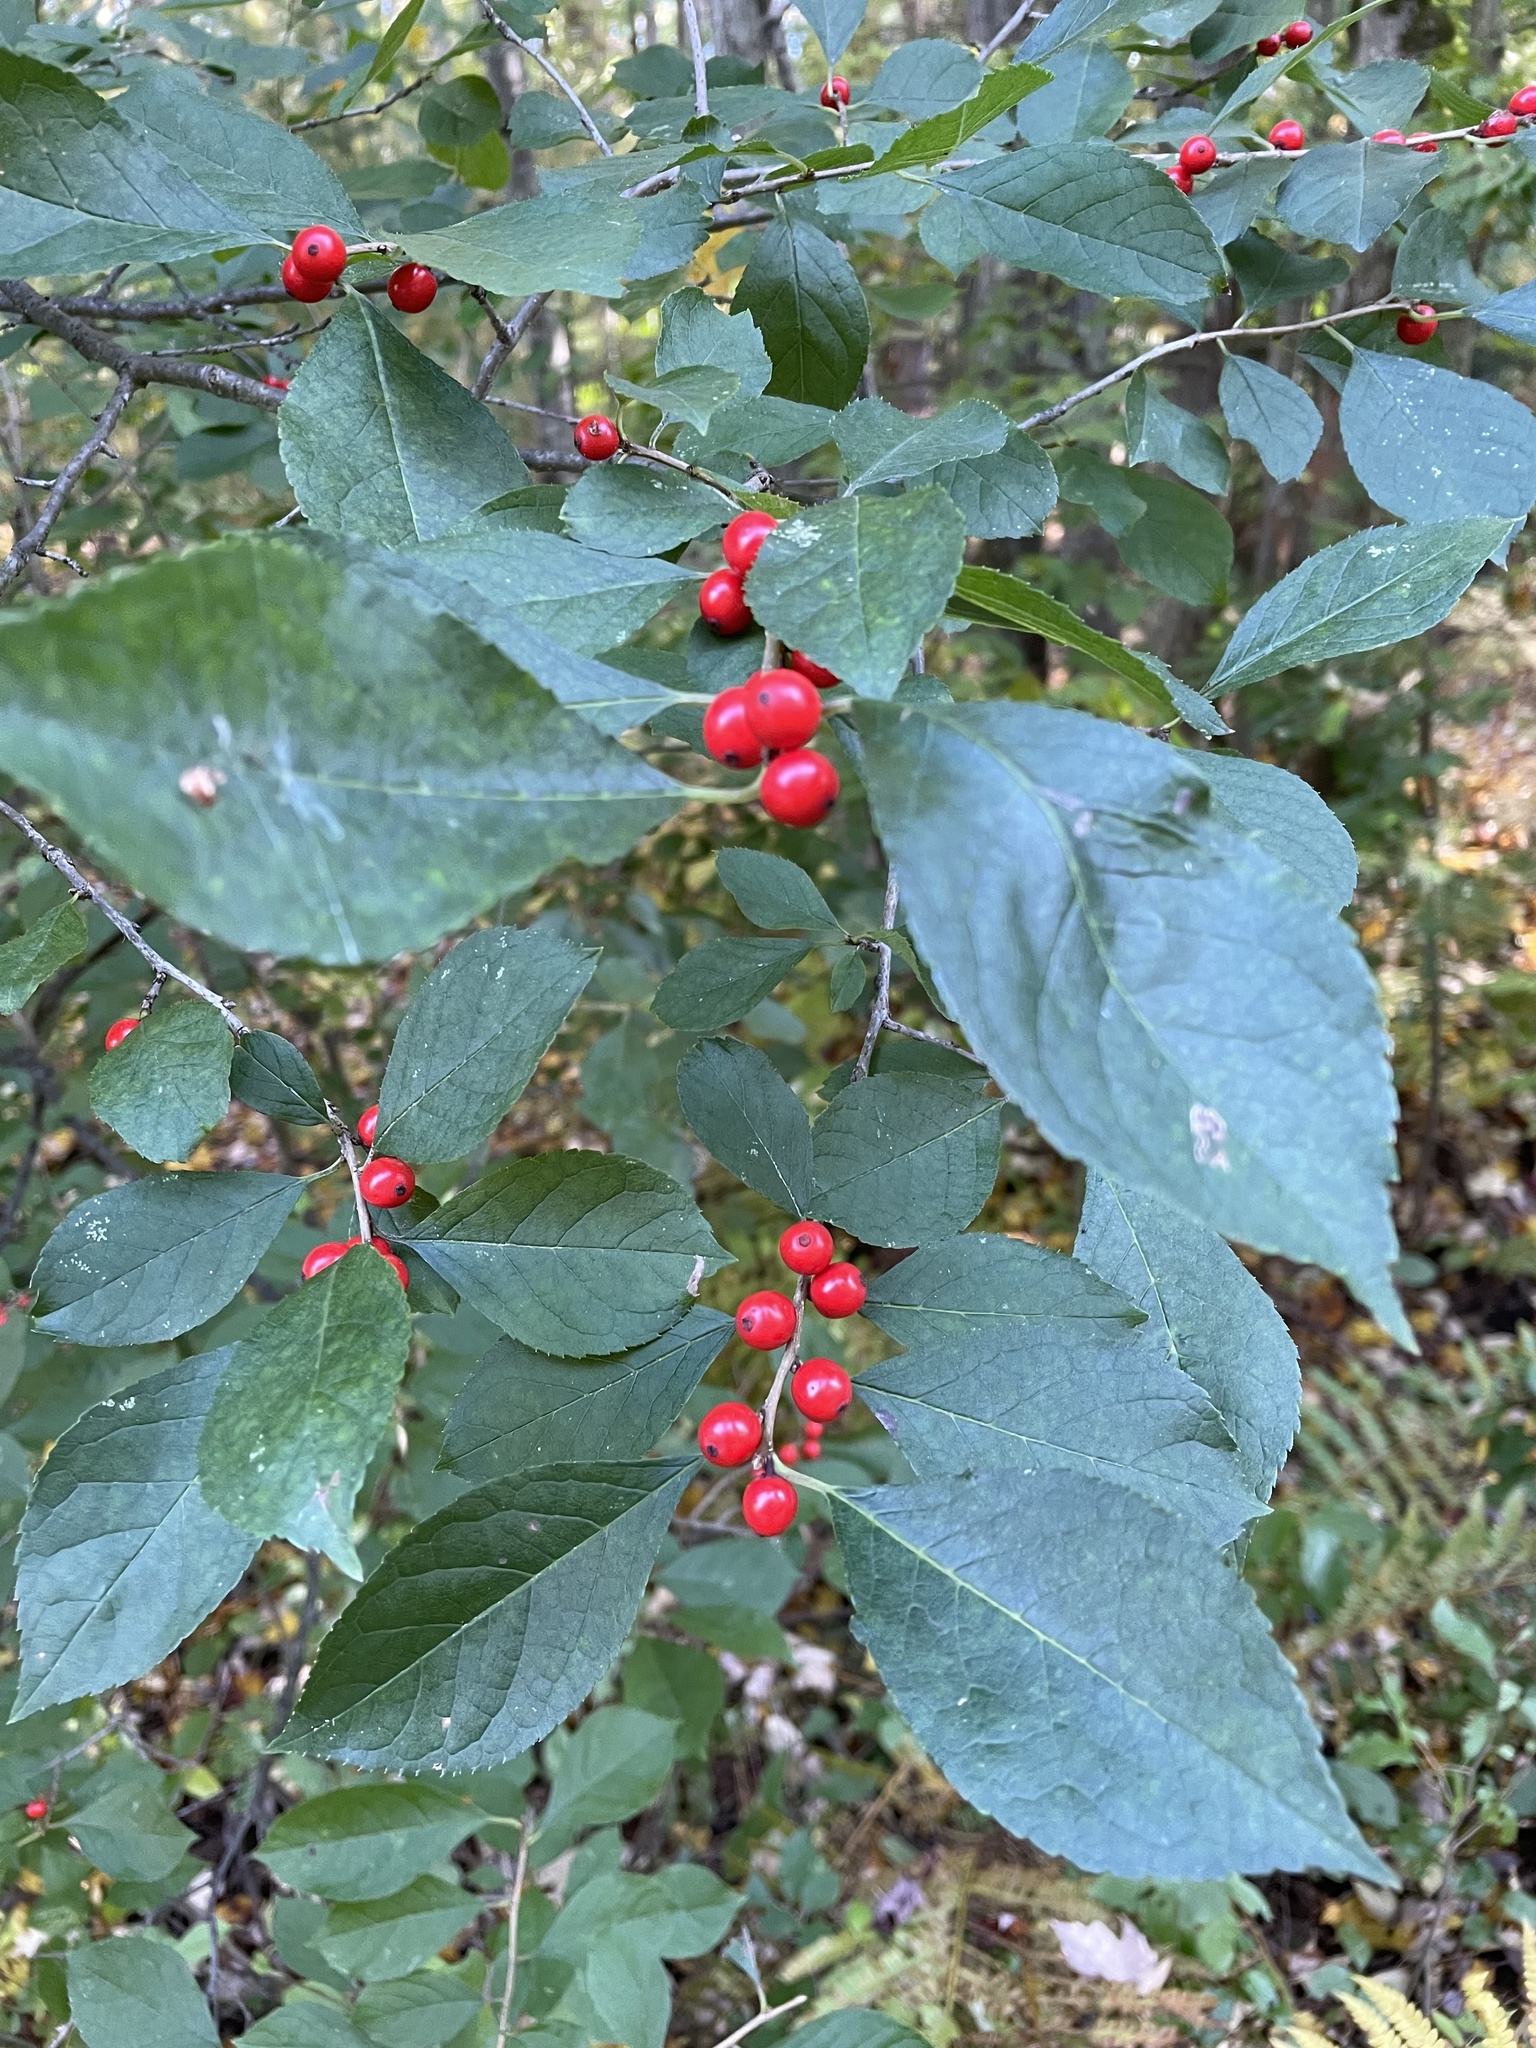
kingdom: Plantae
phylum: Tracheophyta
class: Magnoliopsida
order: Aquifoliales
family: Aquifoliaceae
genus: Ilex
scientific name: Ilex verticillata
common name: Virginia winterberry
